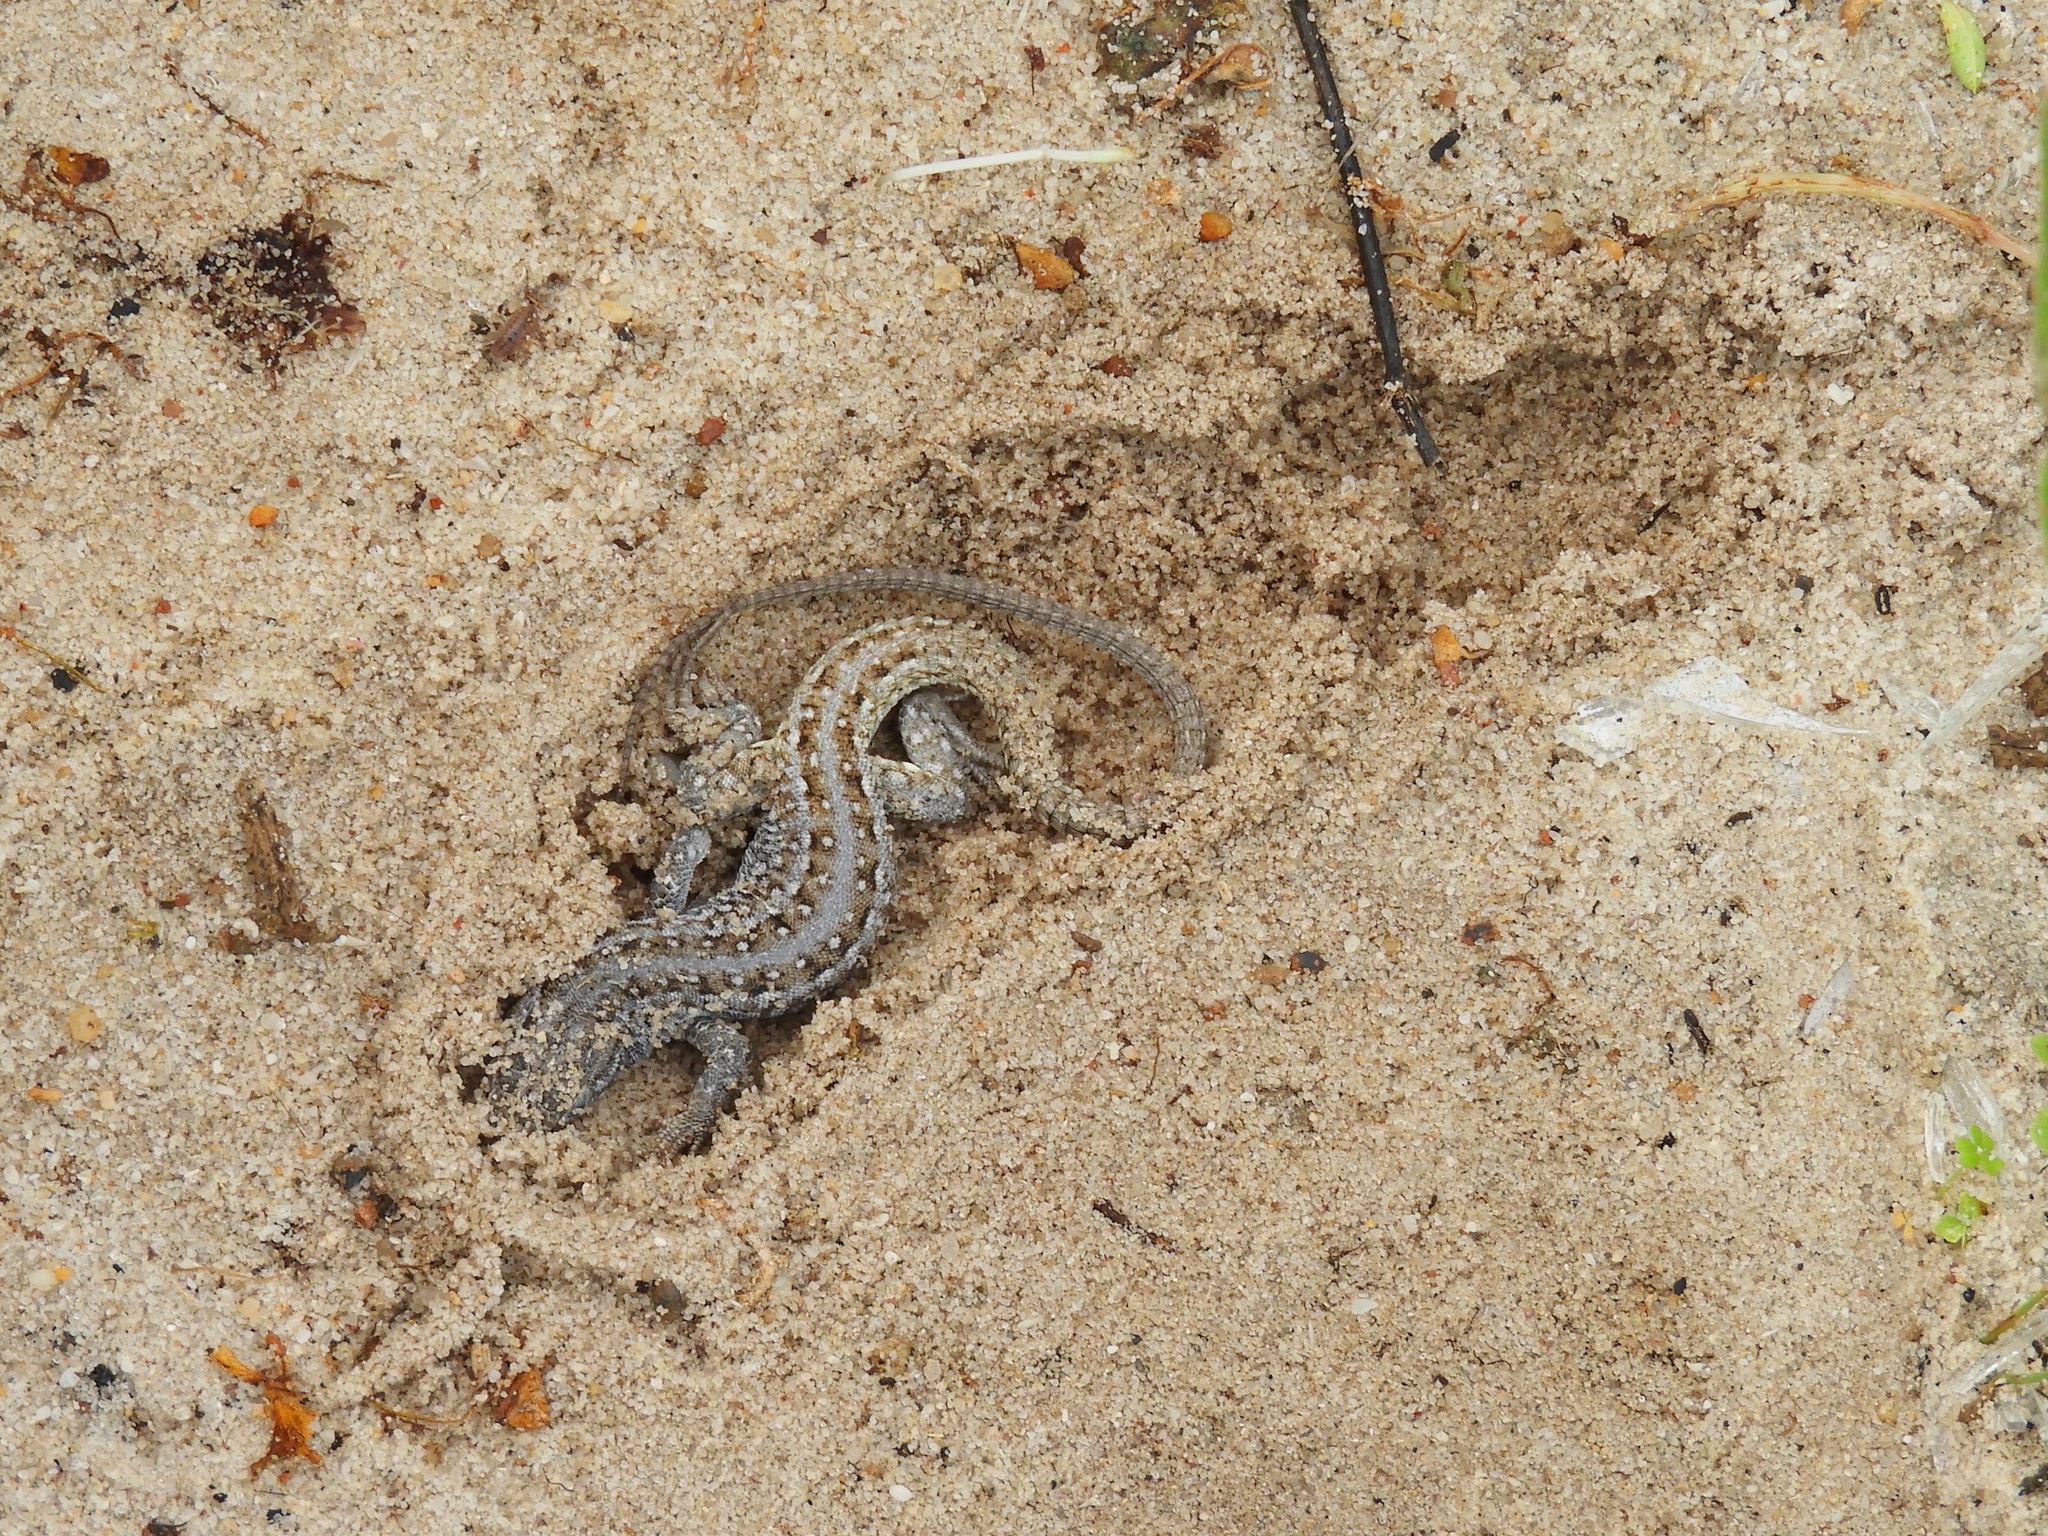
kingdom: Animalia
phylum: Chordata
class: Squamata
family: Lacertidae
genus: Meroles
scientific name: Meroles knoxii
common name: Knox's desert lizard
